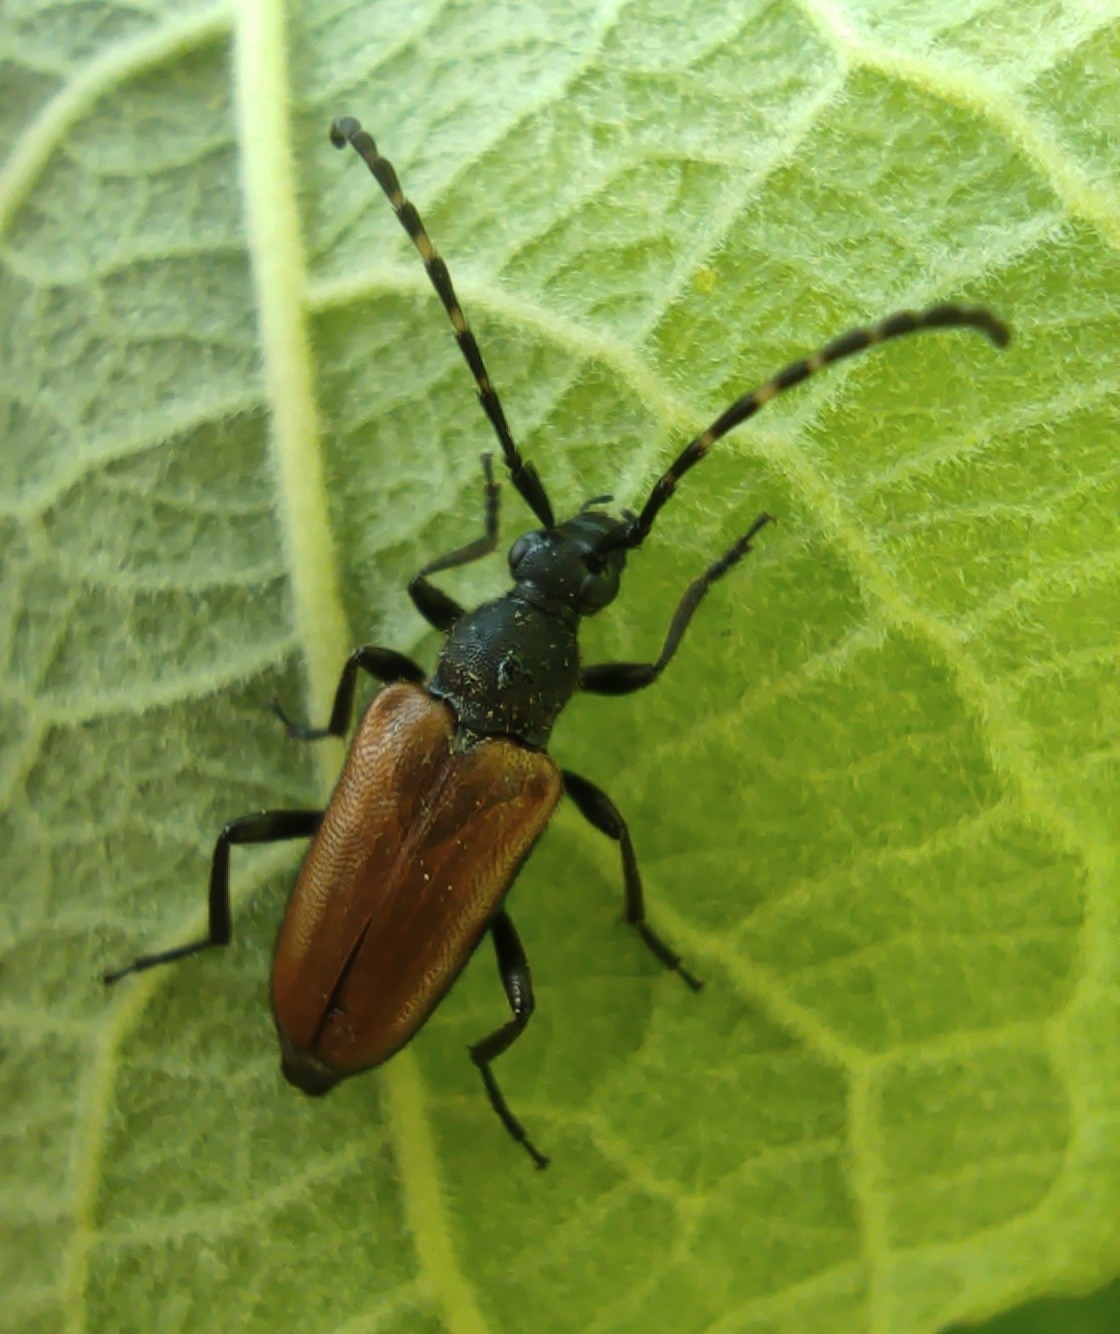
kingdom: Animalia
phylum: Arthropoda
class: Insecta
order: Coleoptera
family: Cerambycidae
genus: Paracorymbia
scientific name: Paracorymbia maculicornis
